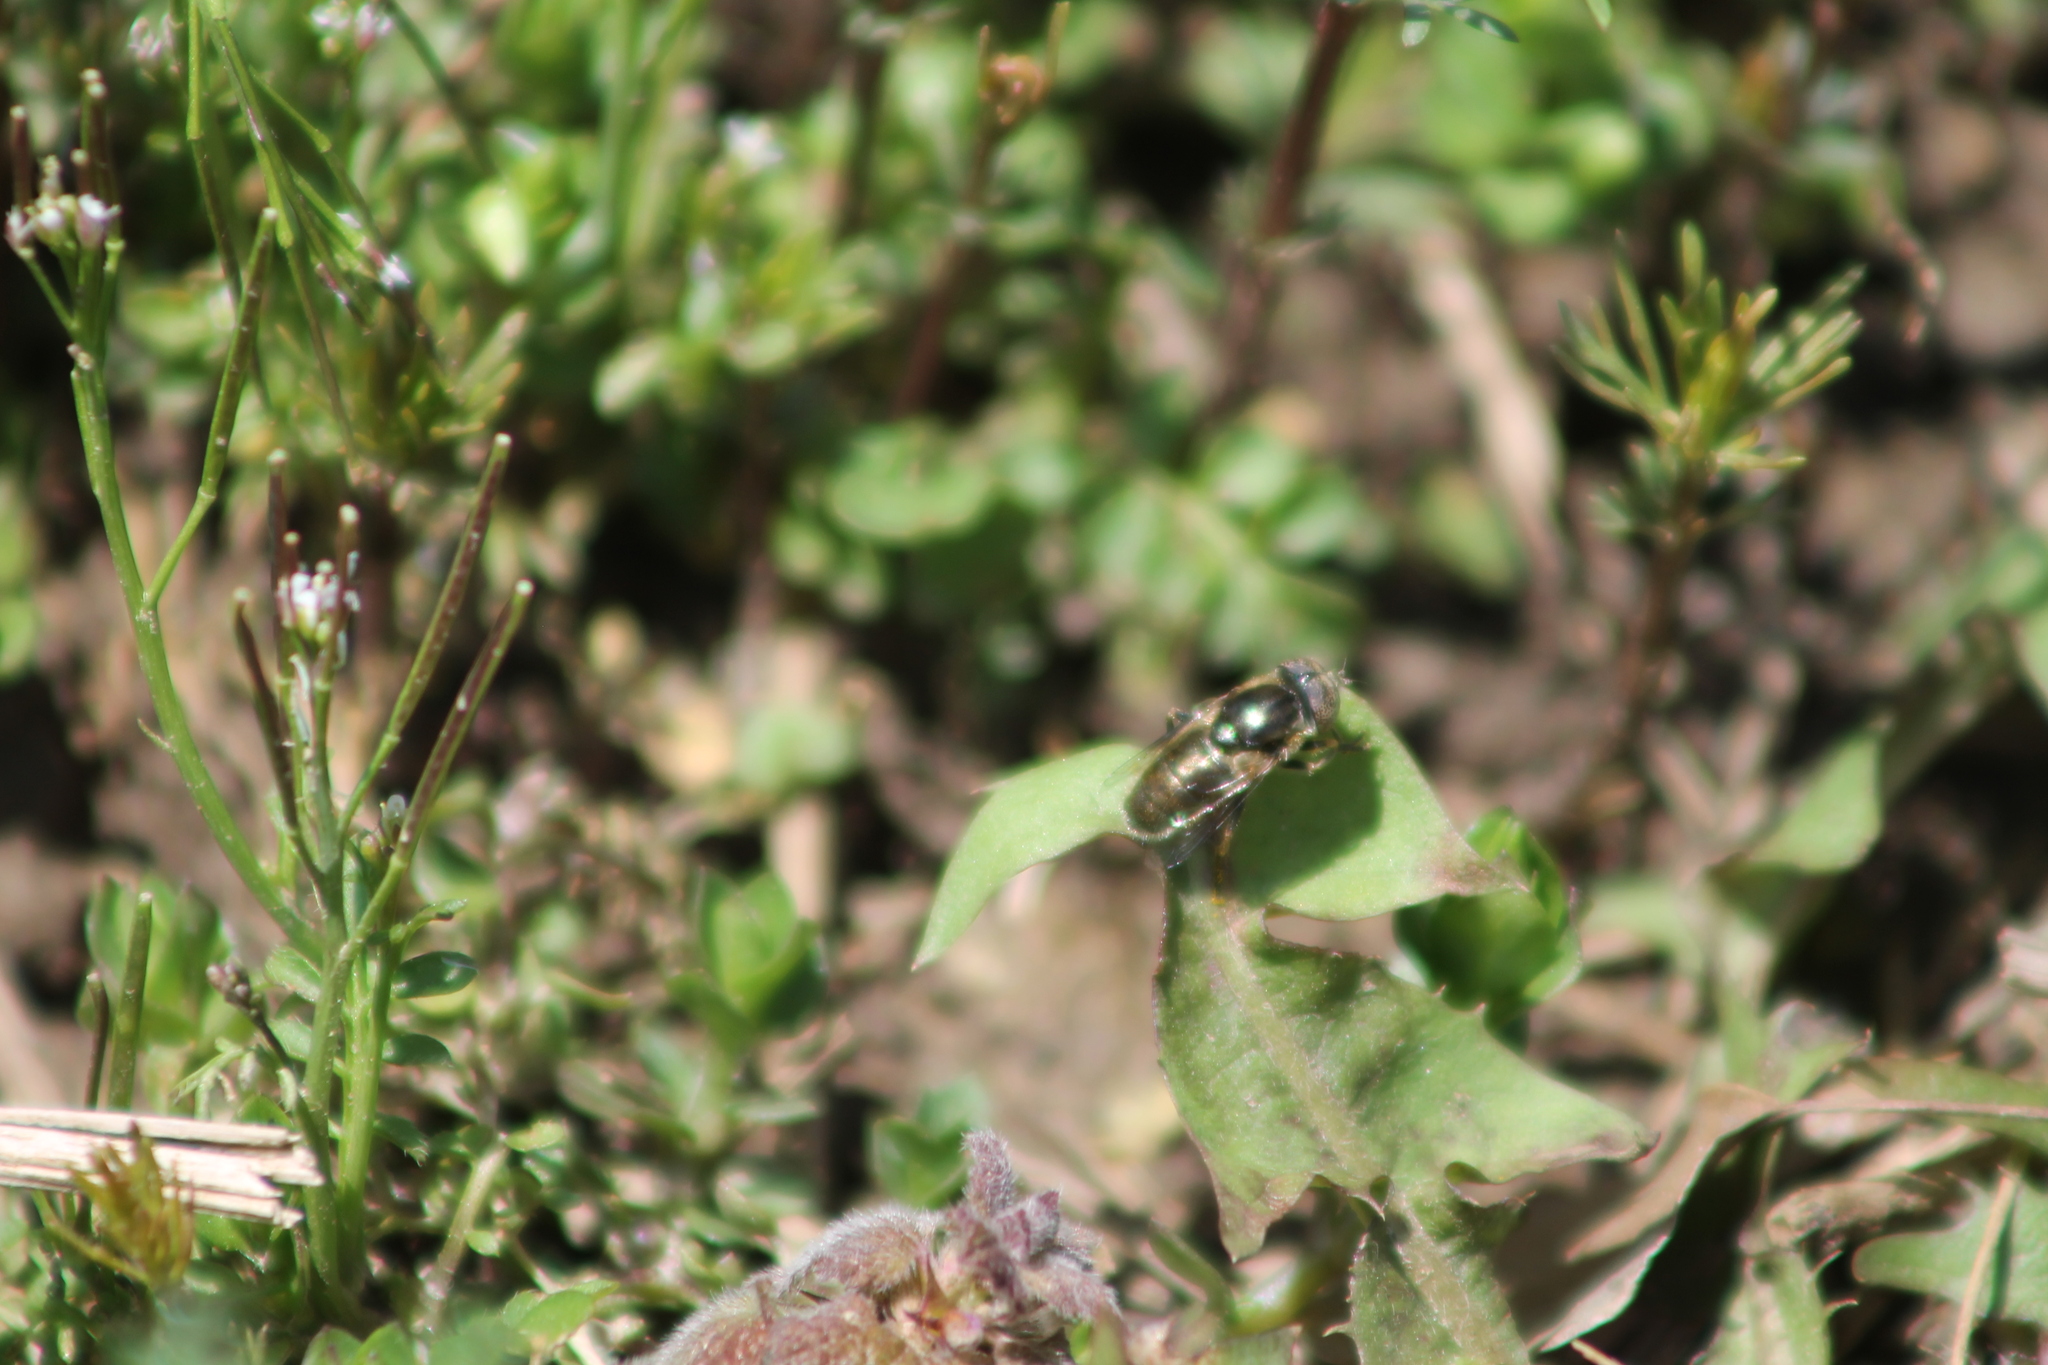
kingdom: Animalia
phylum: Arthropoda
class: Insecta
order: Diptera
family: Syrphidae
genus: Eristalinus
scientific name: Eristalinus aeneus
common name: Syrphid fly
